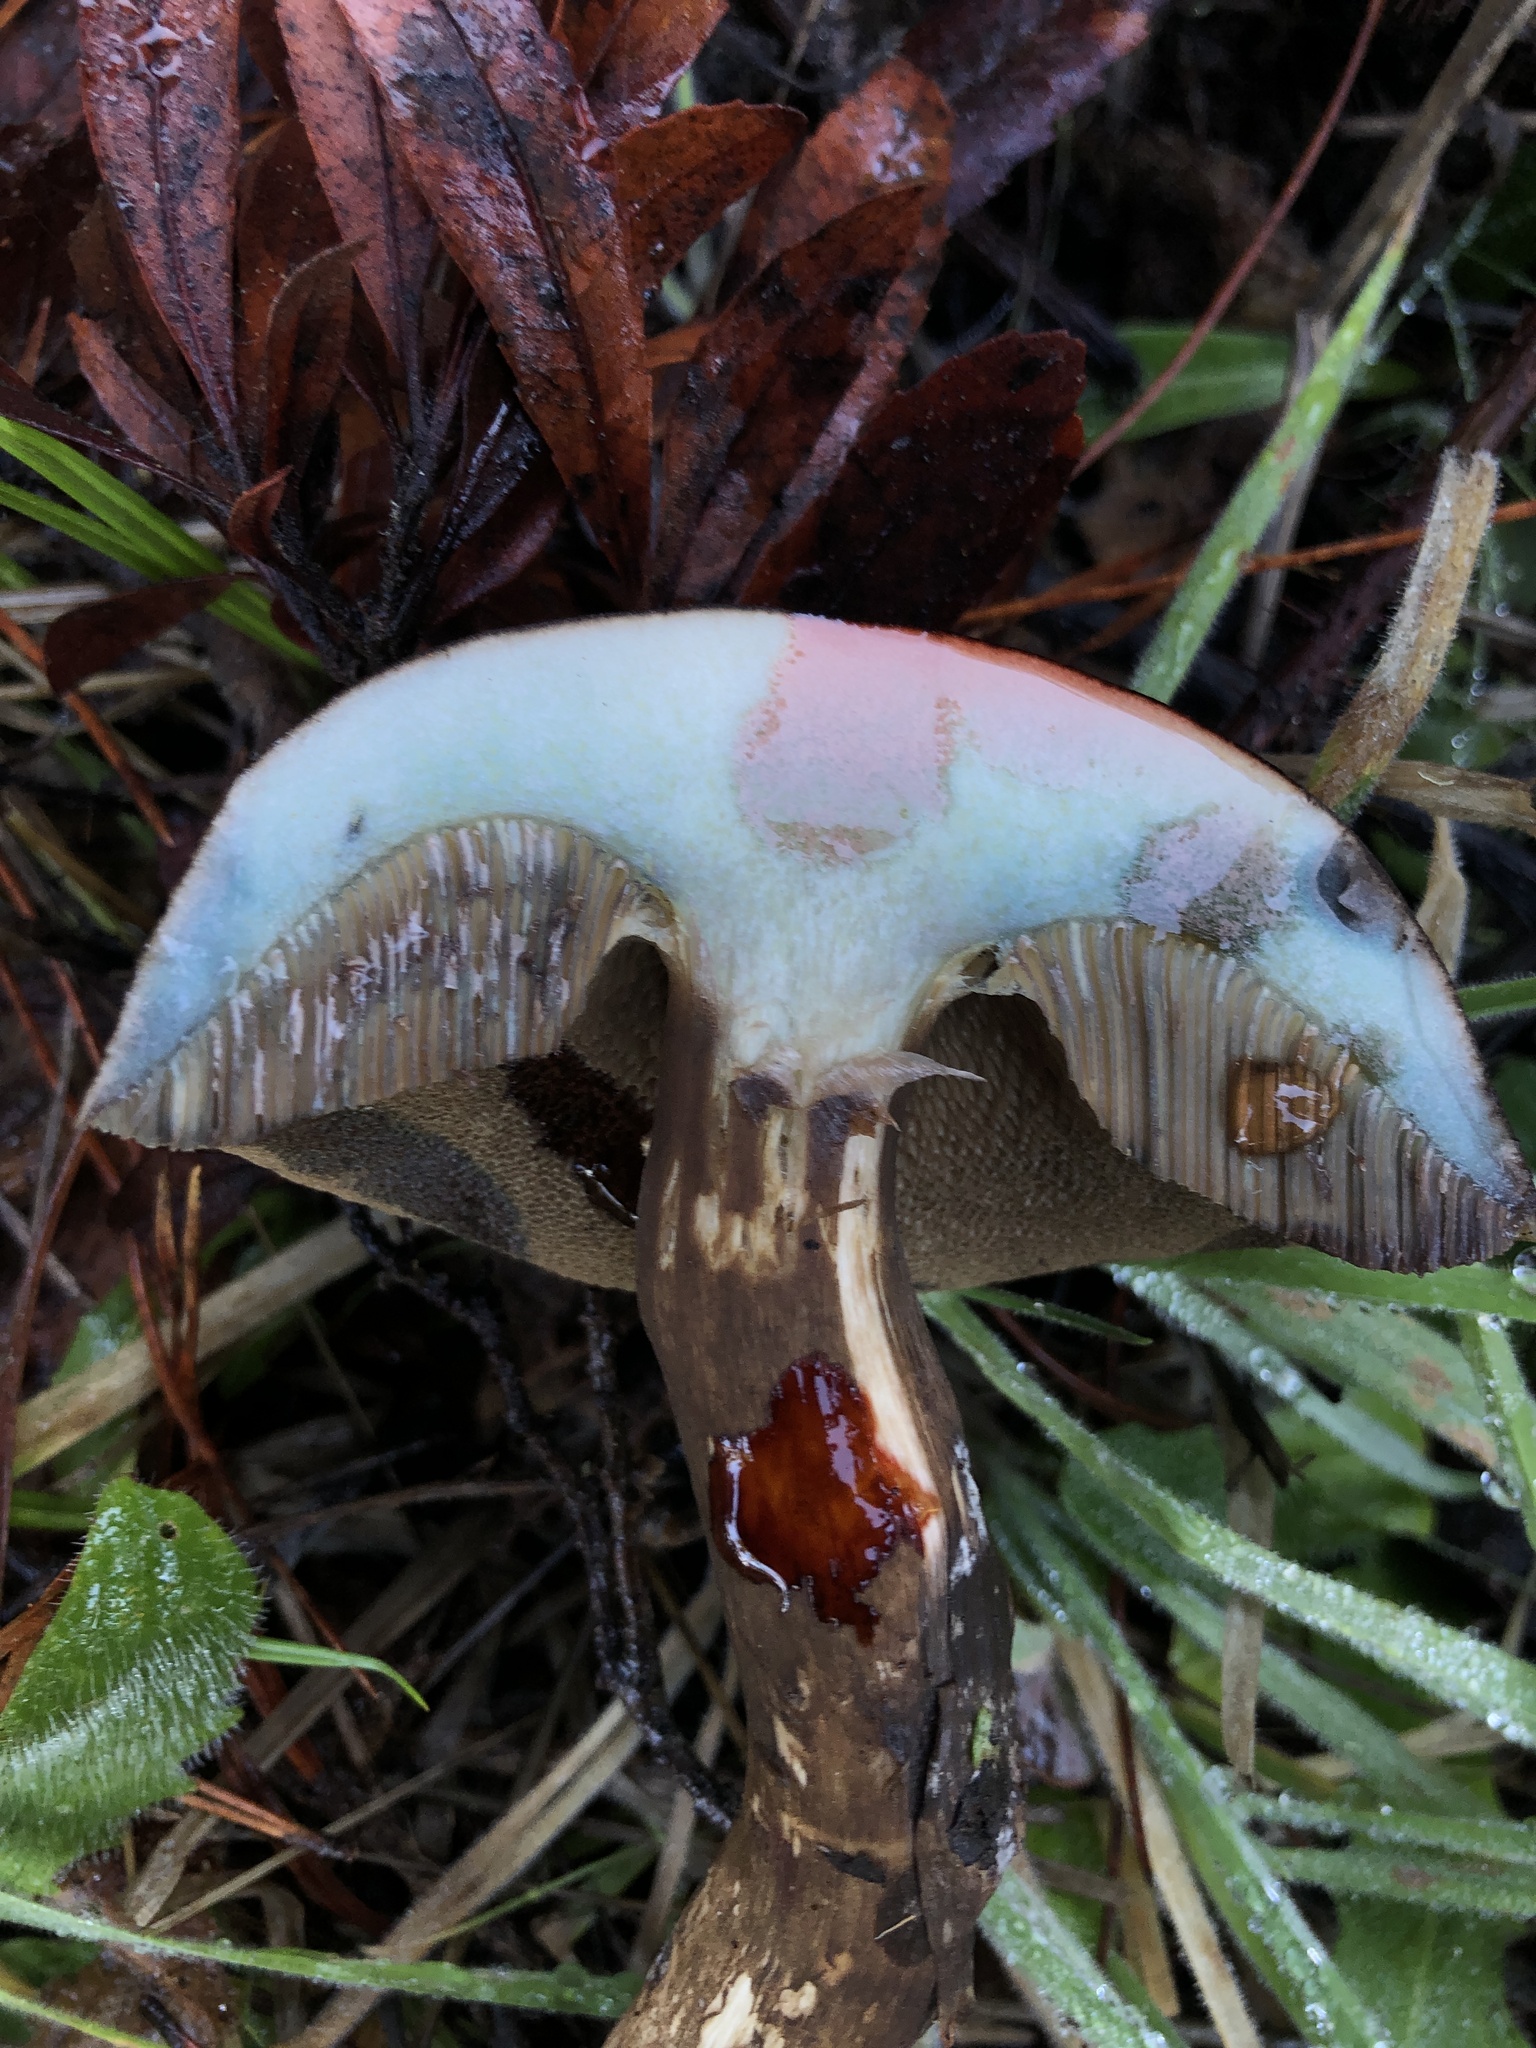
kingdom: Fungi
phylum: Basidiomycota
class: Agaricomycetes
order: Boletales
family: Boletaceae
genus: Porphyrellus
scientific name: Porphyrellus porphyrosporus
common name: Dusky bolete
